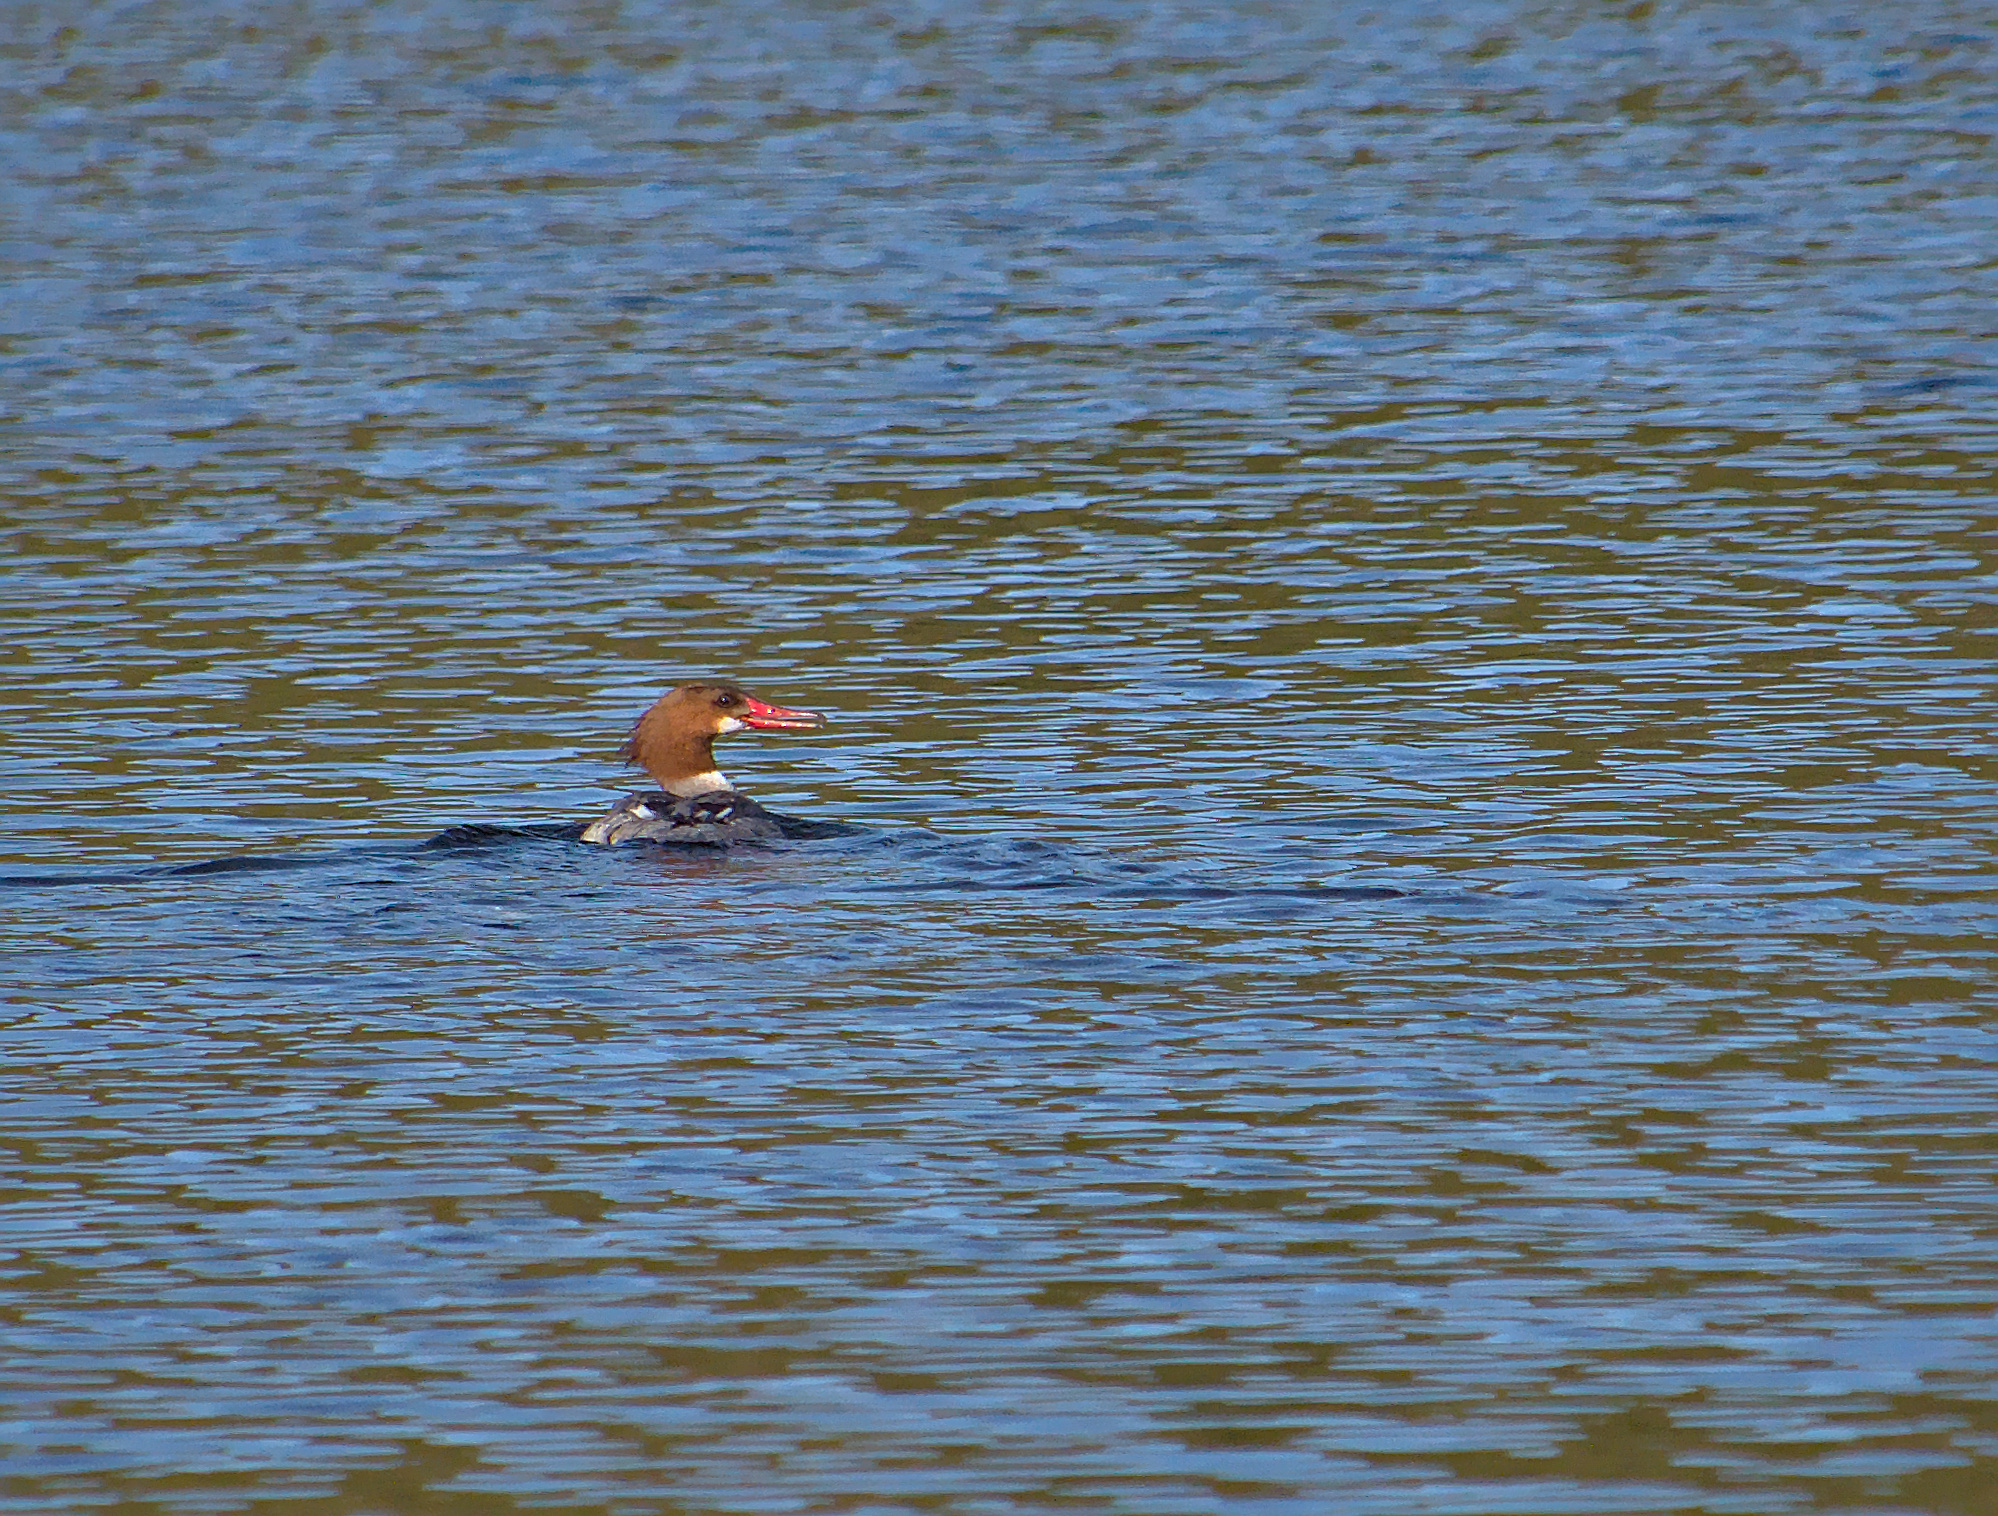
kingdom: Animalia
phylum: Chordata
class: Aves
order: Anseriformes
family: Anatidae
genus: Mergus
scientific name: Mergus merganser
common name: Common merganser
